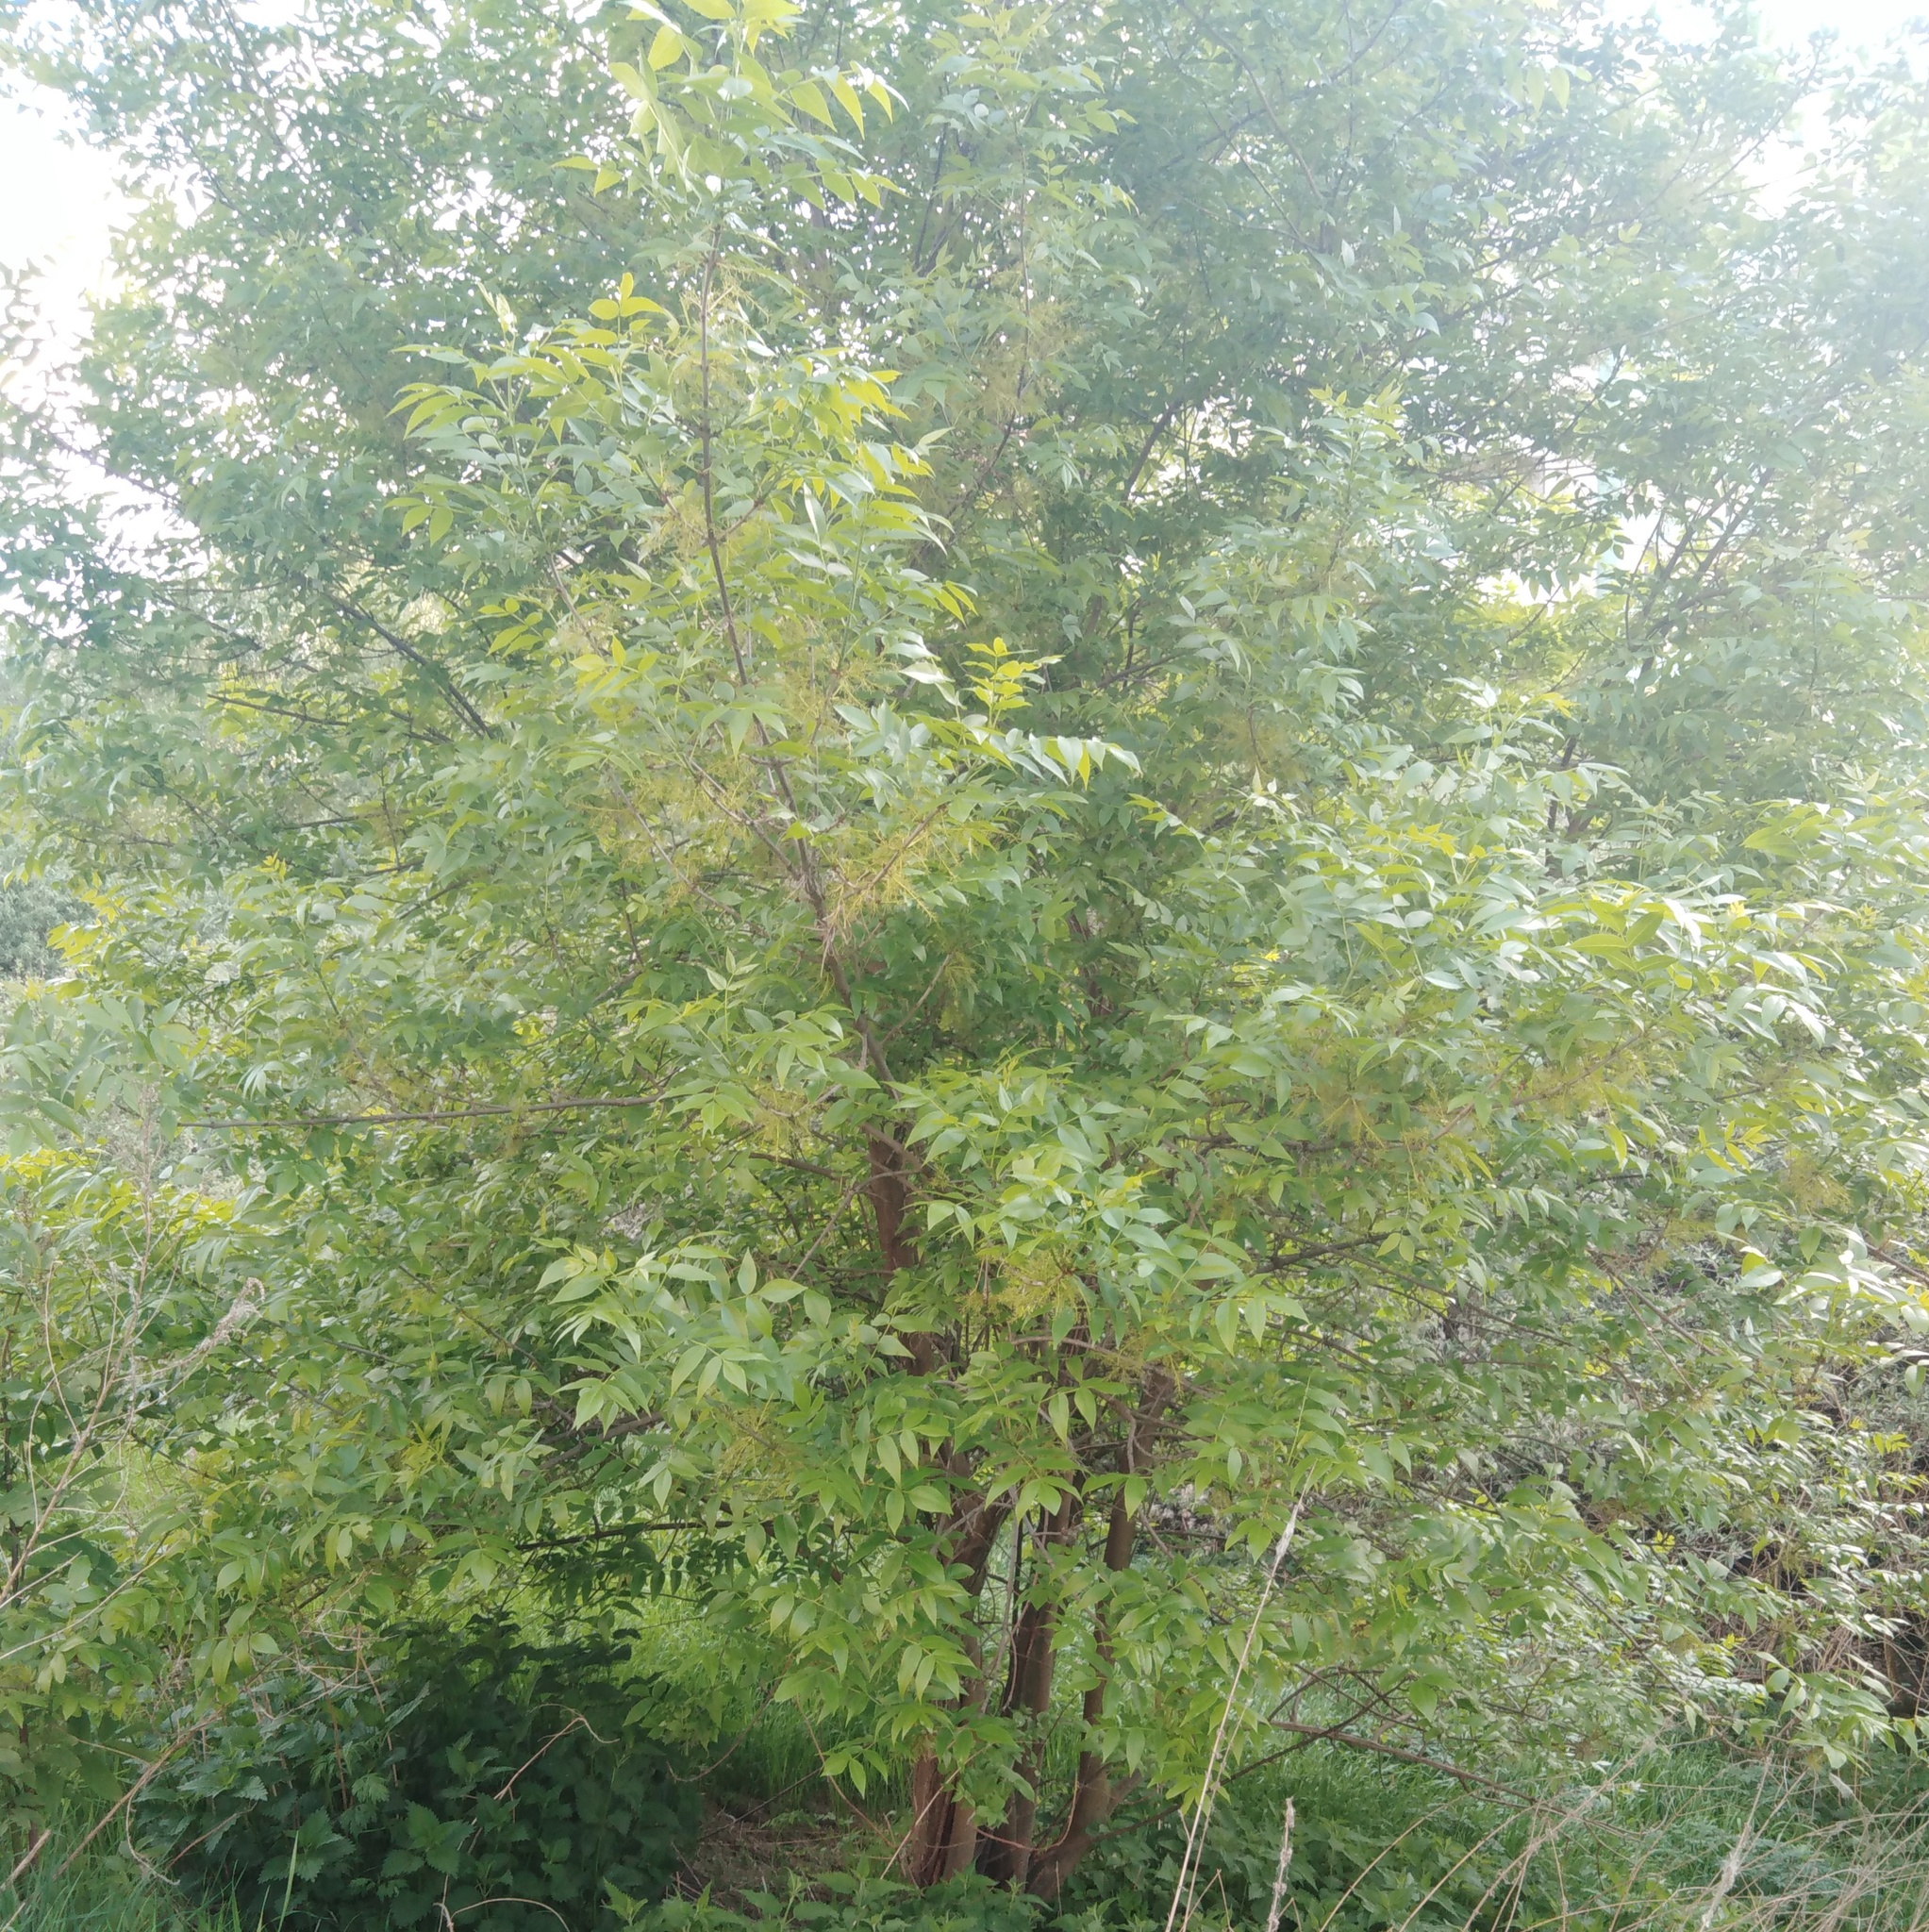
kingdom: Plantae
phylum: Tracheophyta
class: Magnoliopsida
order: Lamiales
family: Oleaceae
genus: Fraxinus
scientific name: Fraxinus pennsylvanica
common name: Green ash
